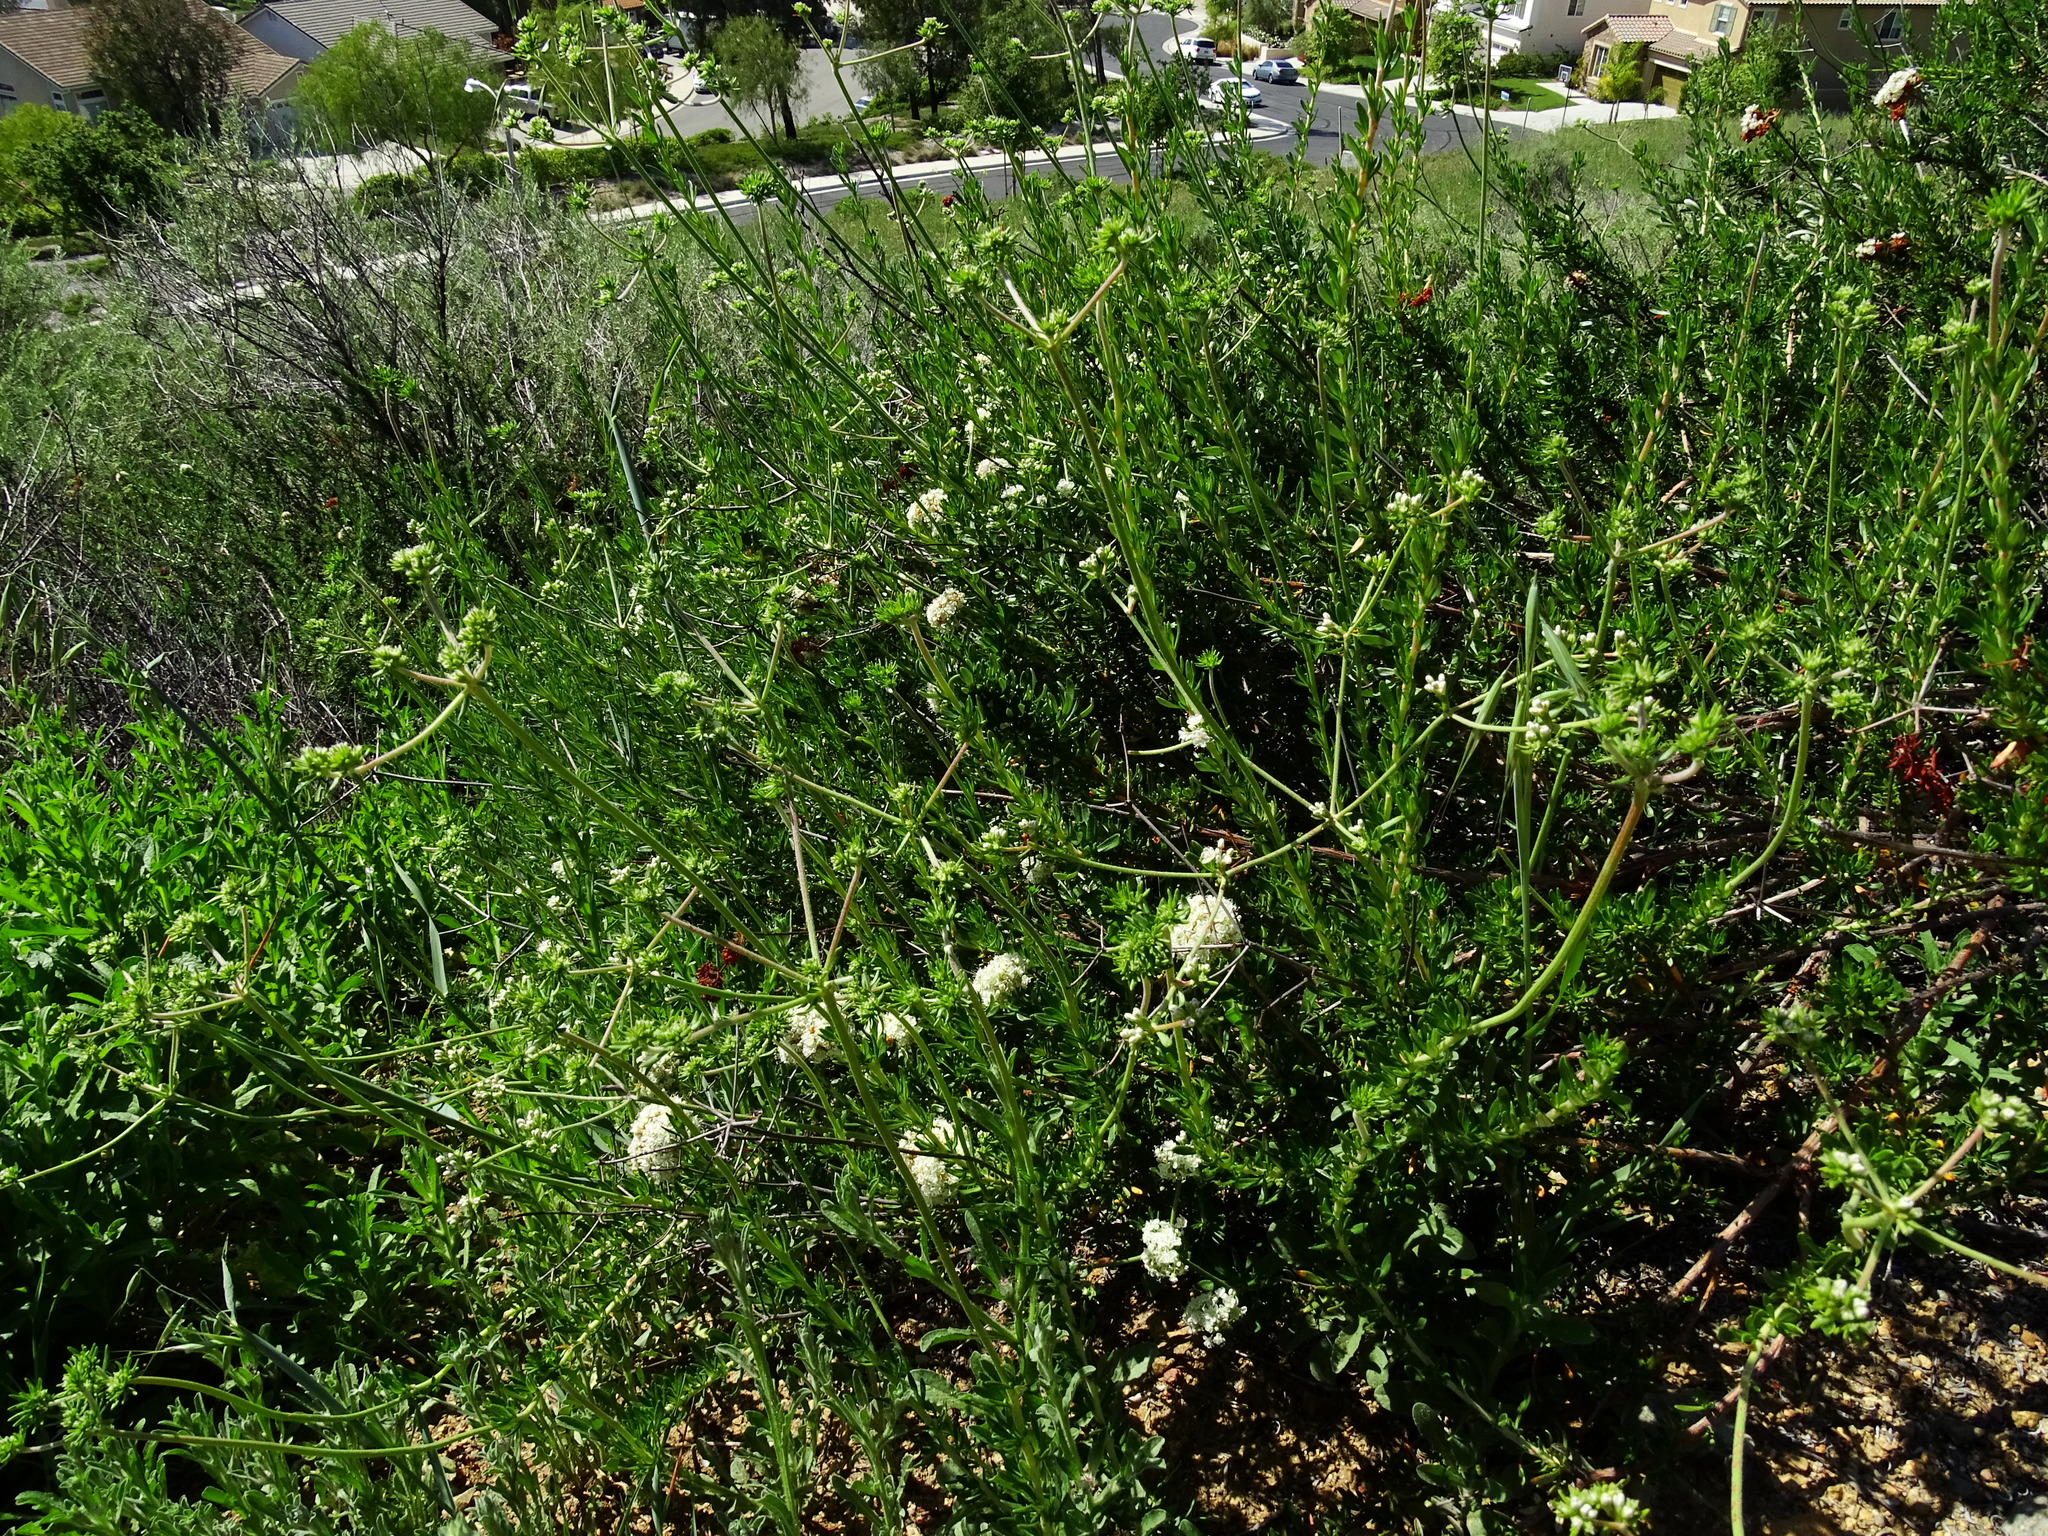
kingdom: Plantae
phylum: Tracheophyta
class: Magnoliopsida
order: Caryophyllales
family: Polygonaceae
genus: Eriogonum
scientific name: Eriogonum fasciculatum
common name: California wild buckwheat
